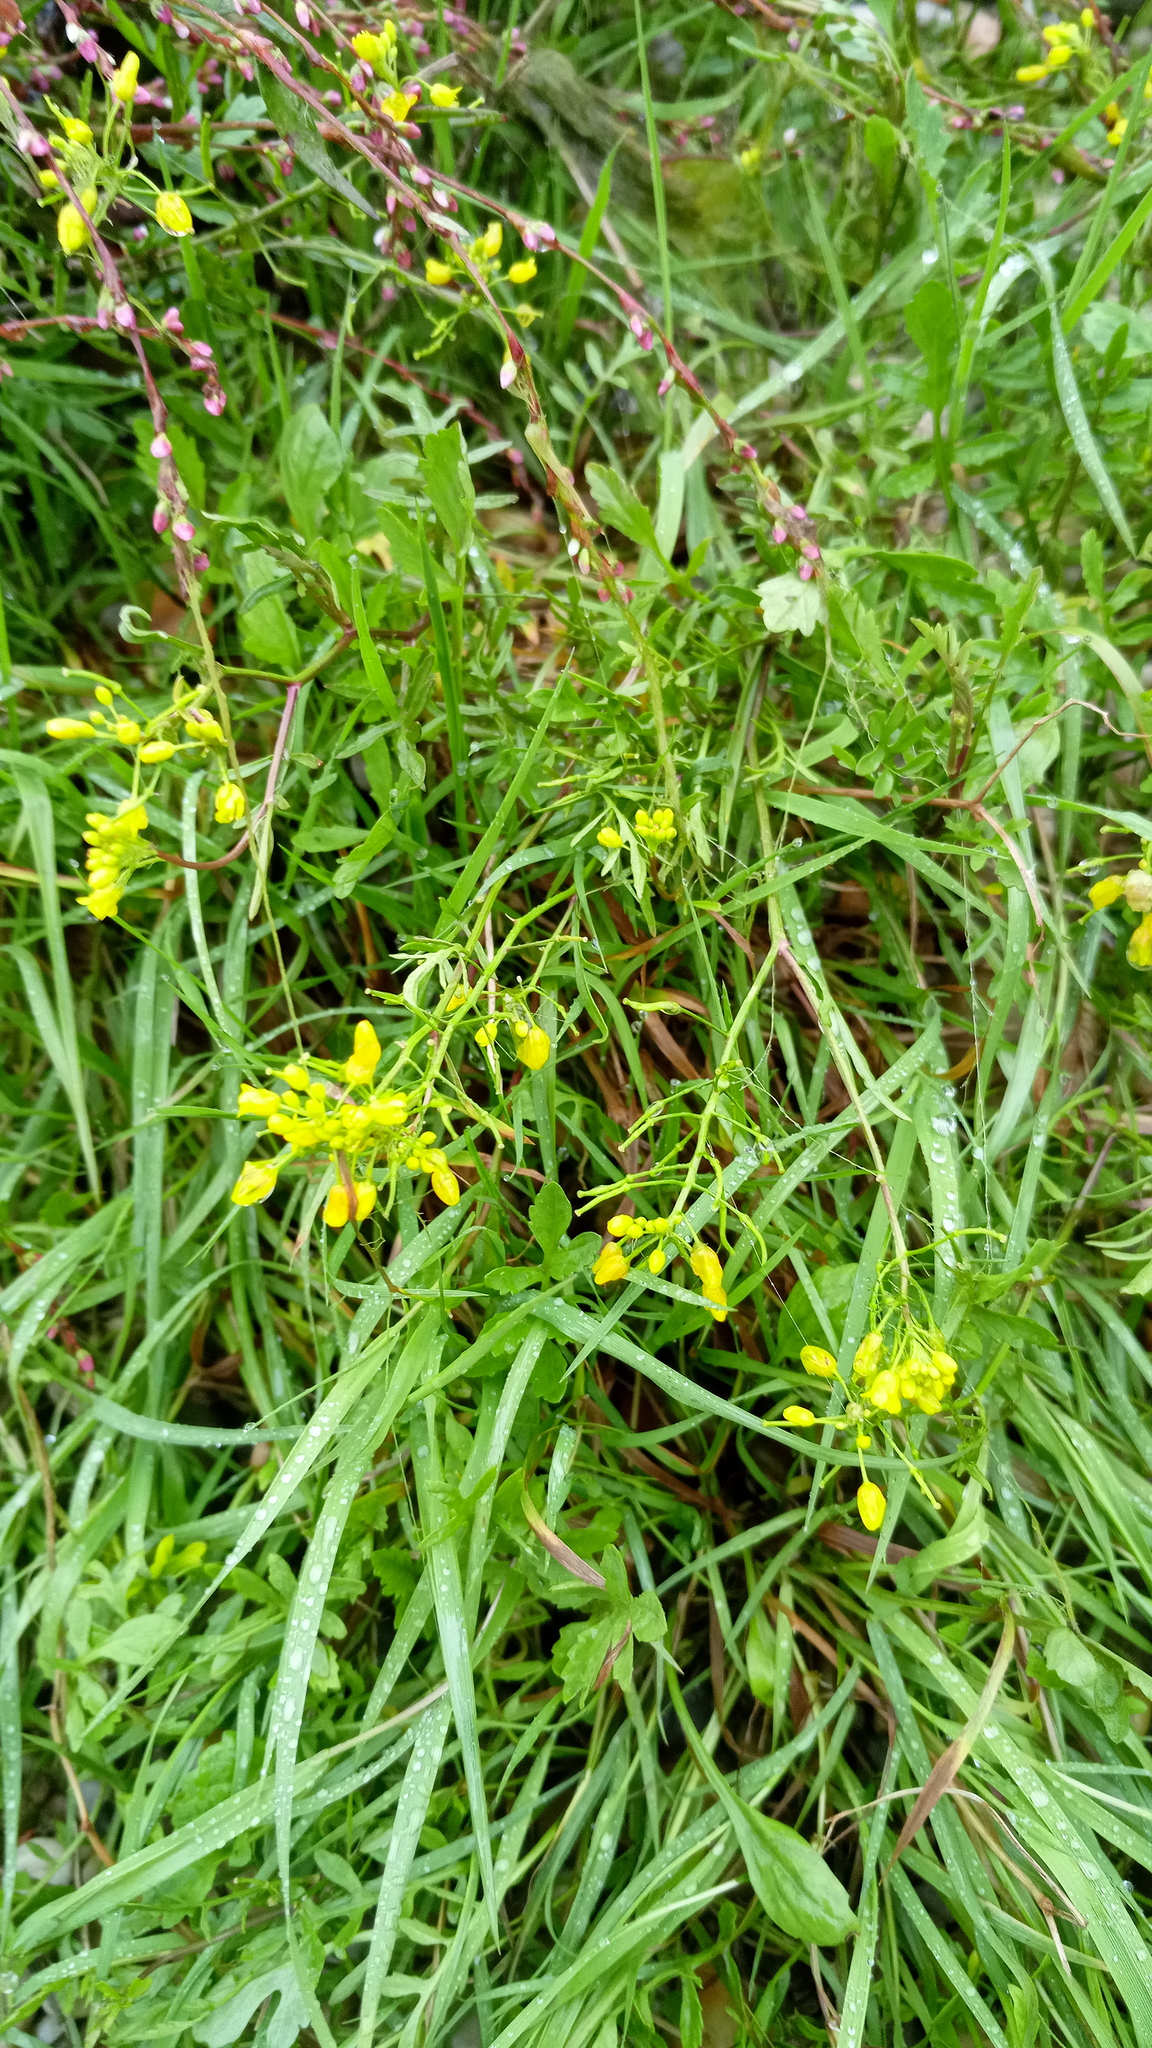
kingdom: Plantae
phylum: Tracheophyta
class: Magnoliopsida
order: Brassicales
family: Brassicaceae
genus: Rorippa
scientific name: Rorippa sylvestris
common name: Creeping yellowcress
